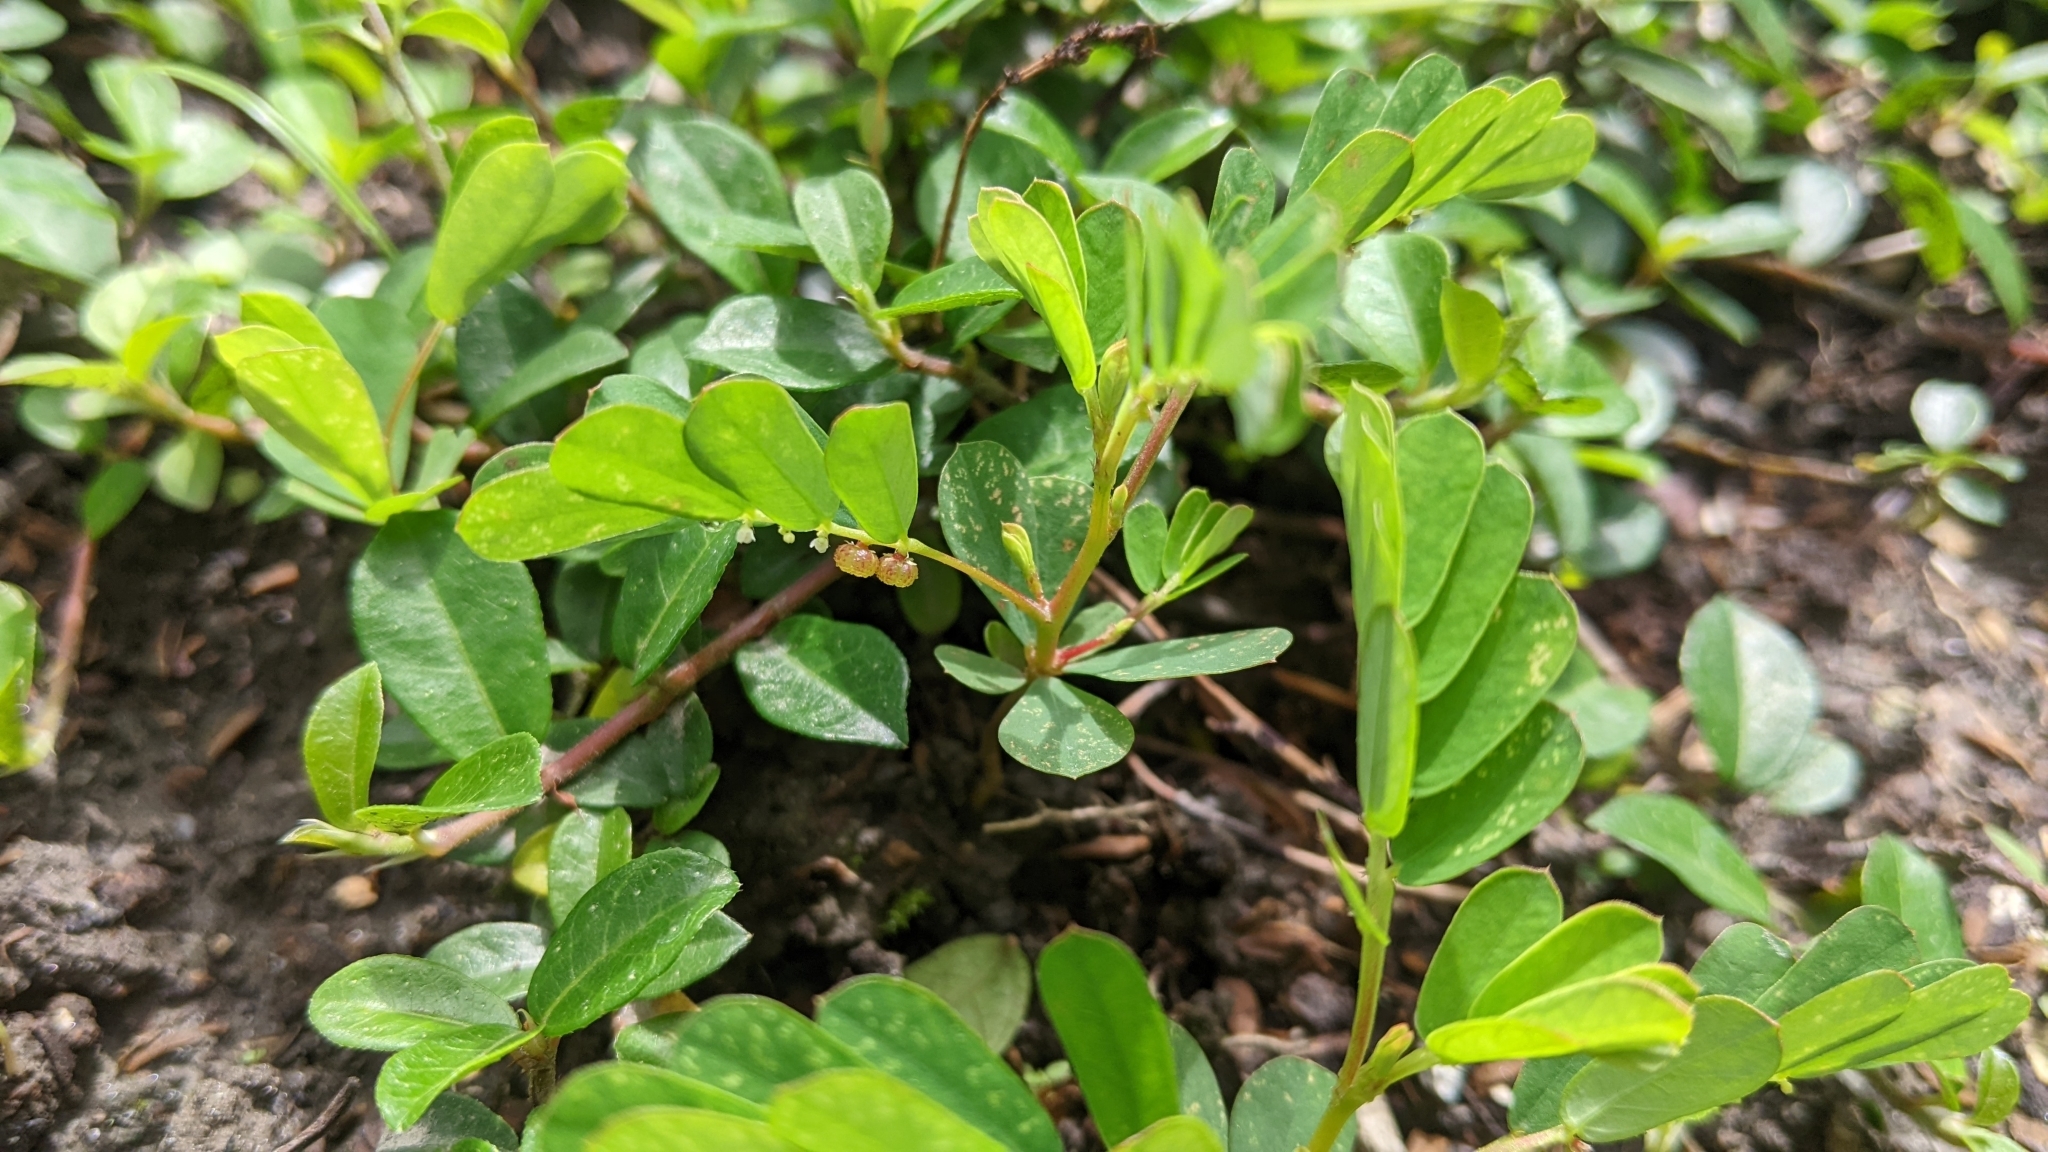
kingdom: Plantae
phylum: Tracheophyta
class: Magnoliopsida
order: Malpighiales
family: Phyllanthaceae
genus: Phyllanthus
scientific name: Phyllanthus urinaria
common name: Chamber bitter
